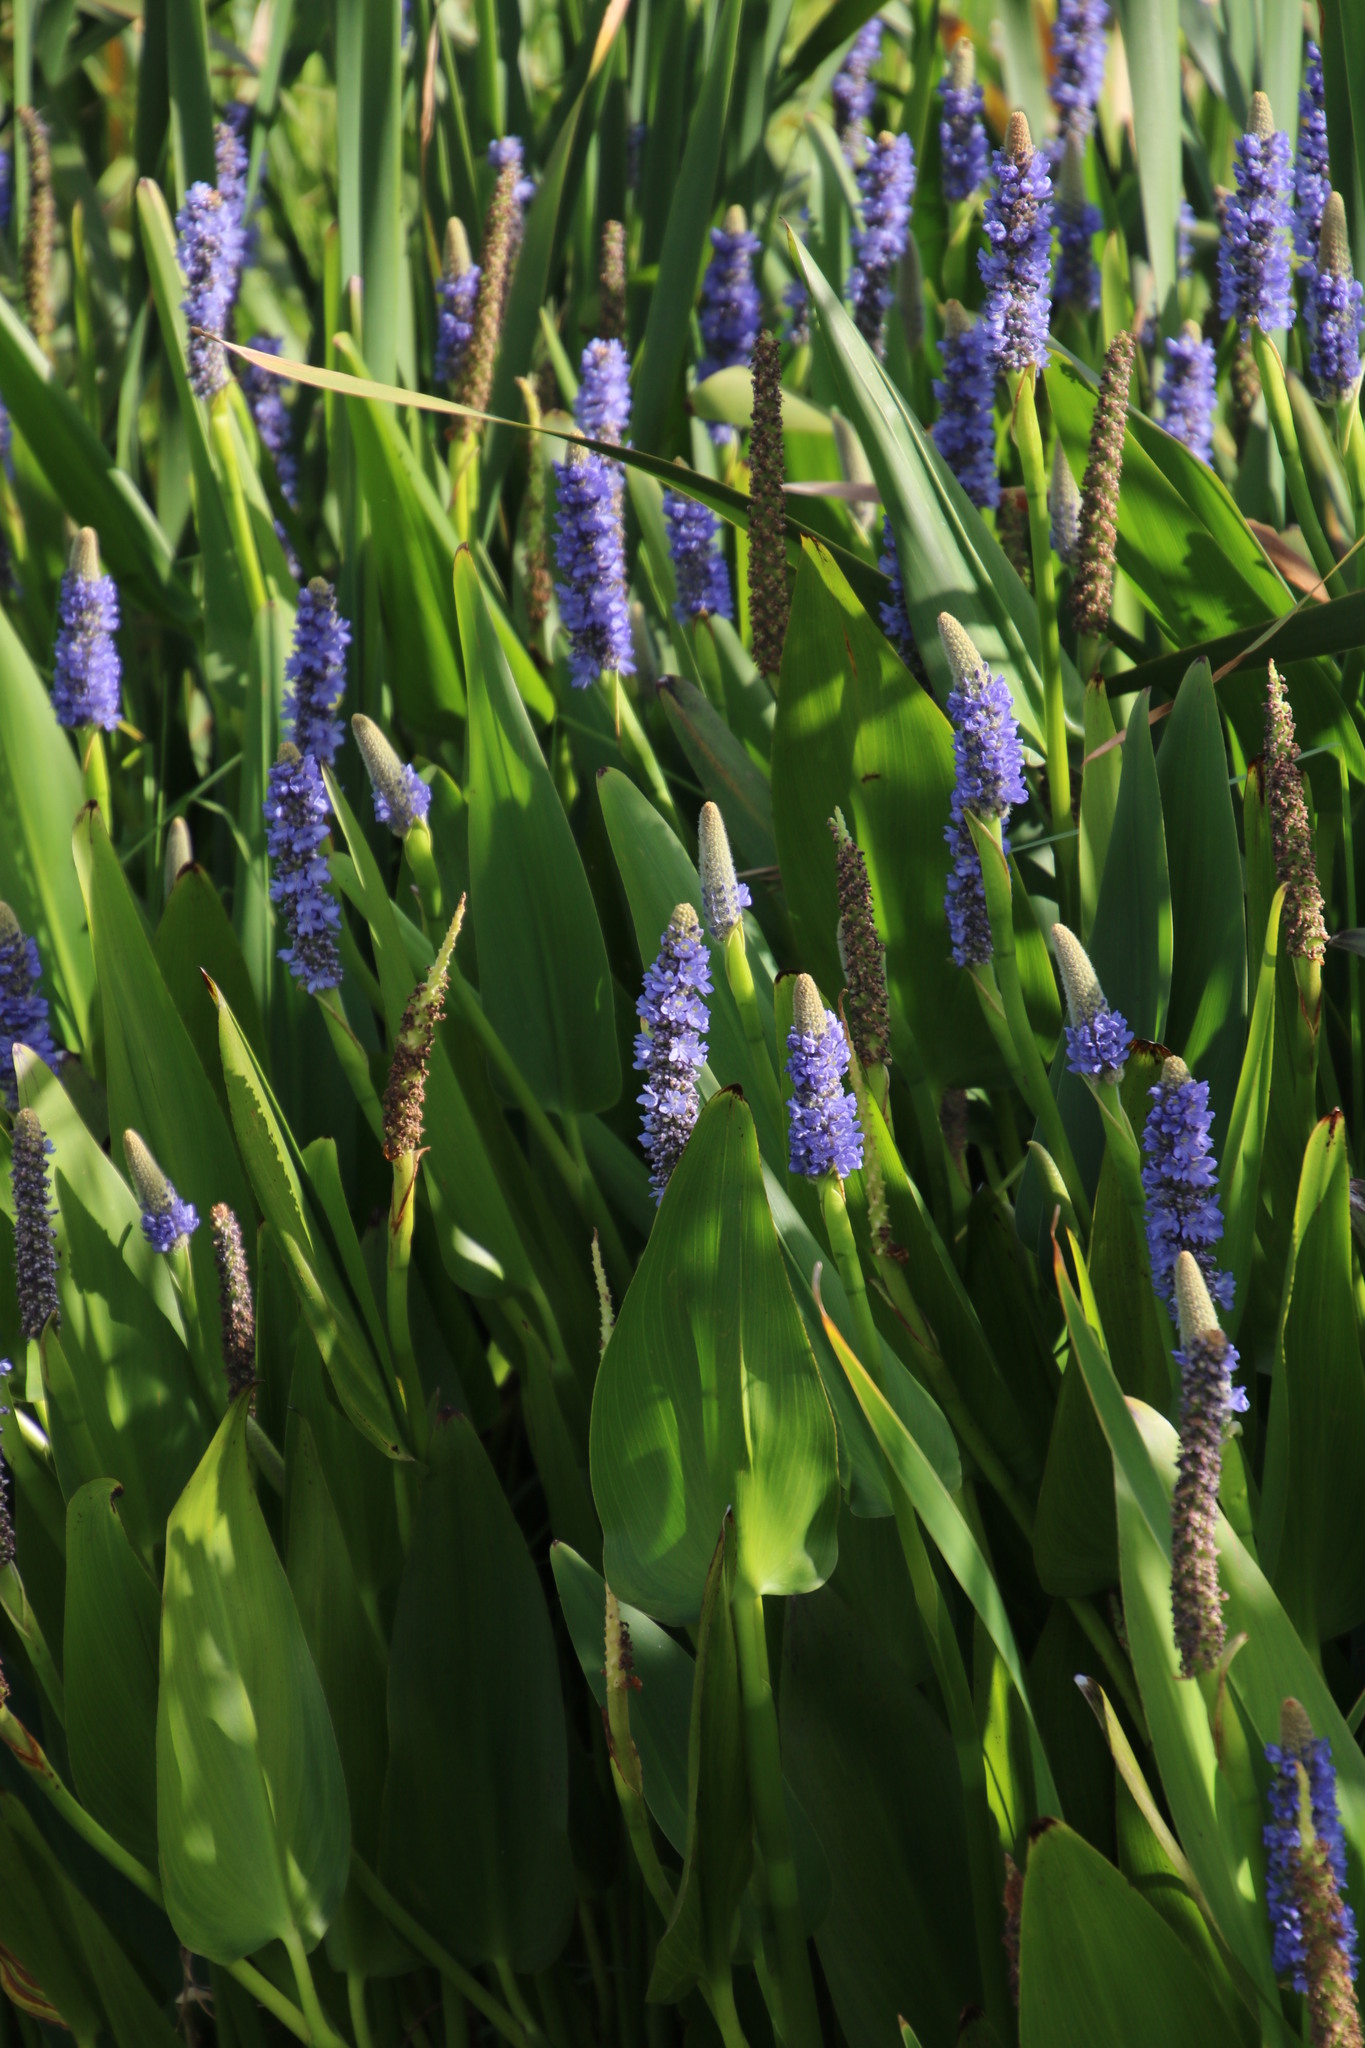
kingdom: Plantae
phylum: Tracheophyta
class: Liliopsida
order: Commelinales
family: Pontederiaceae
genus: Pontederia
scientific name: Pontederia cordata
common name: Pickerelweed
